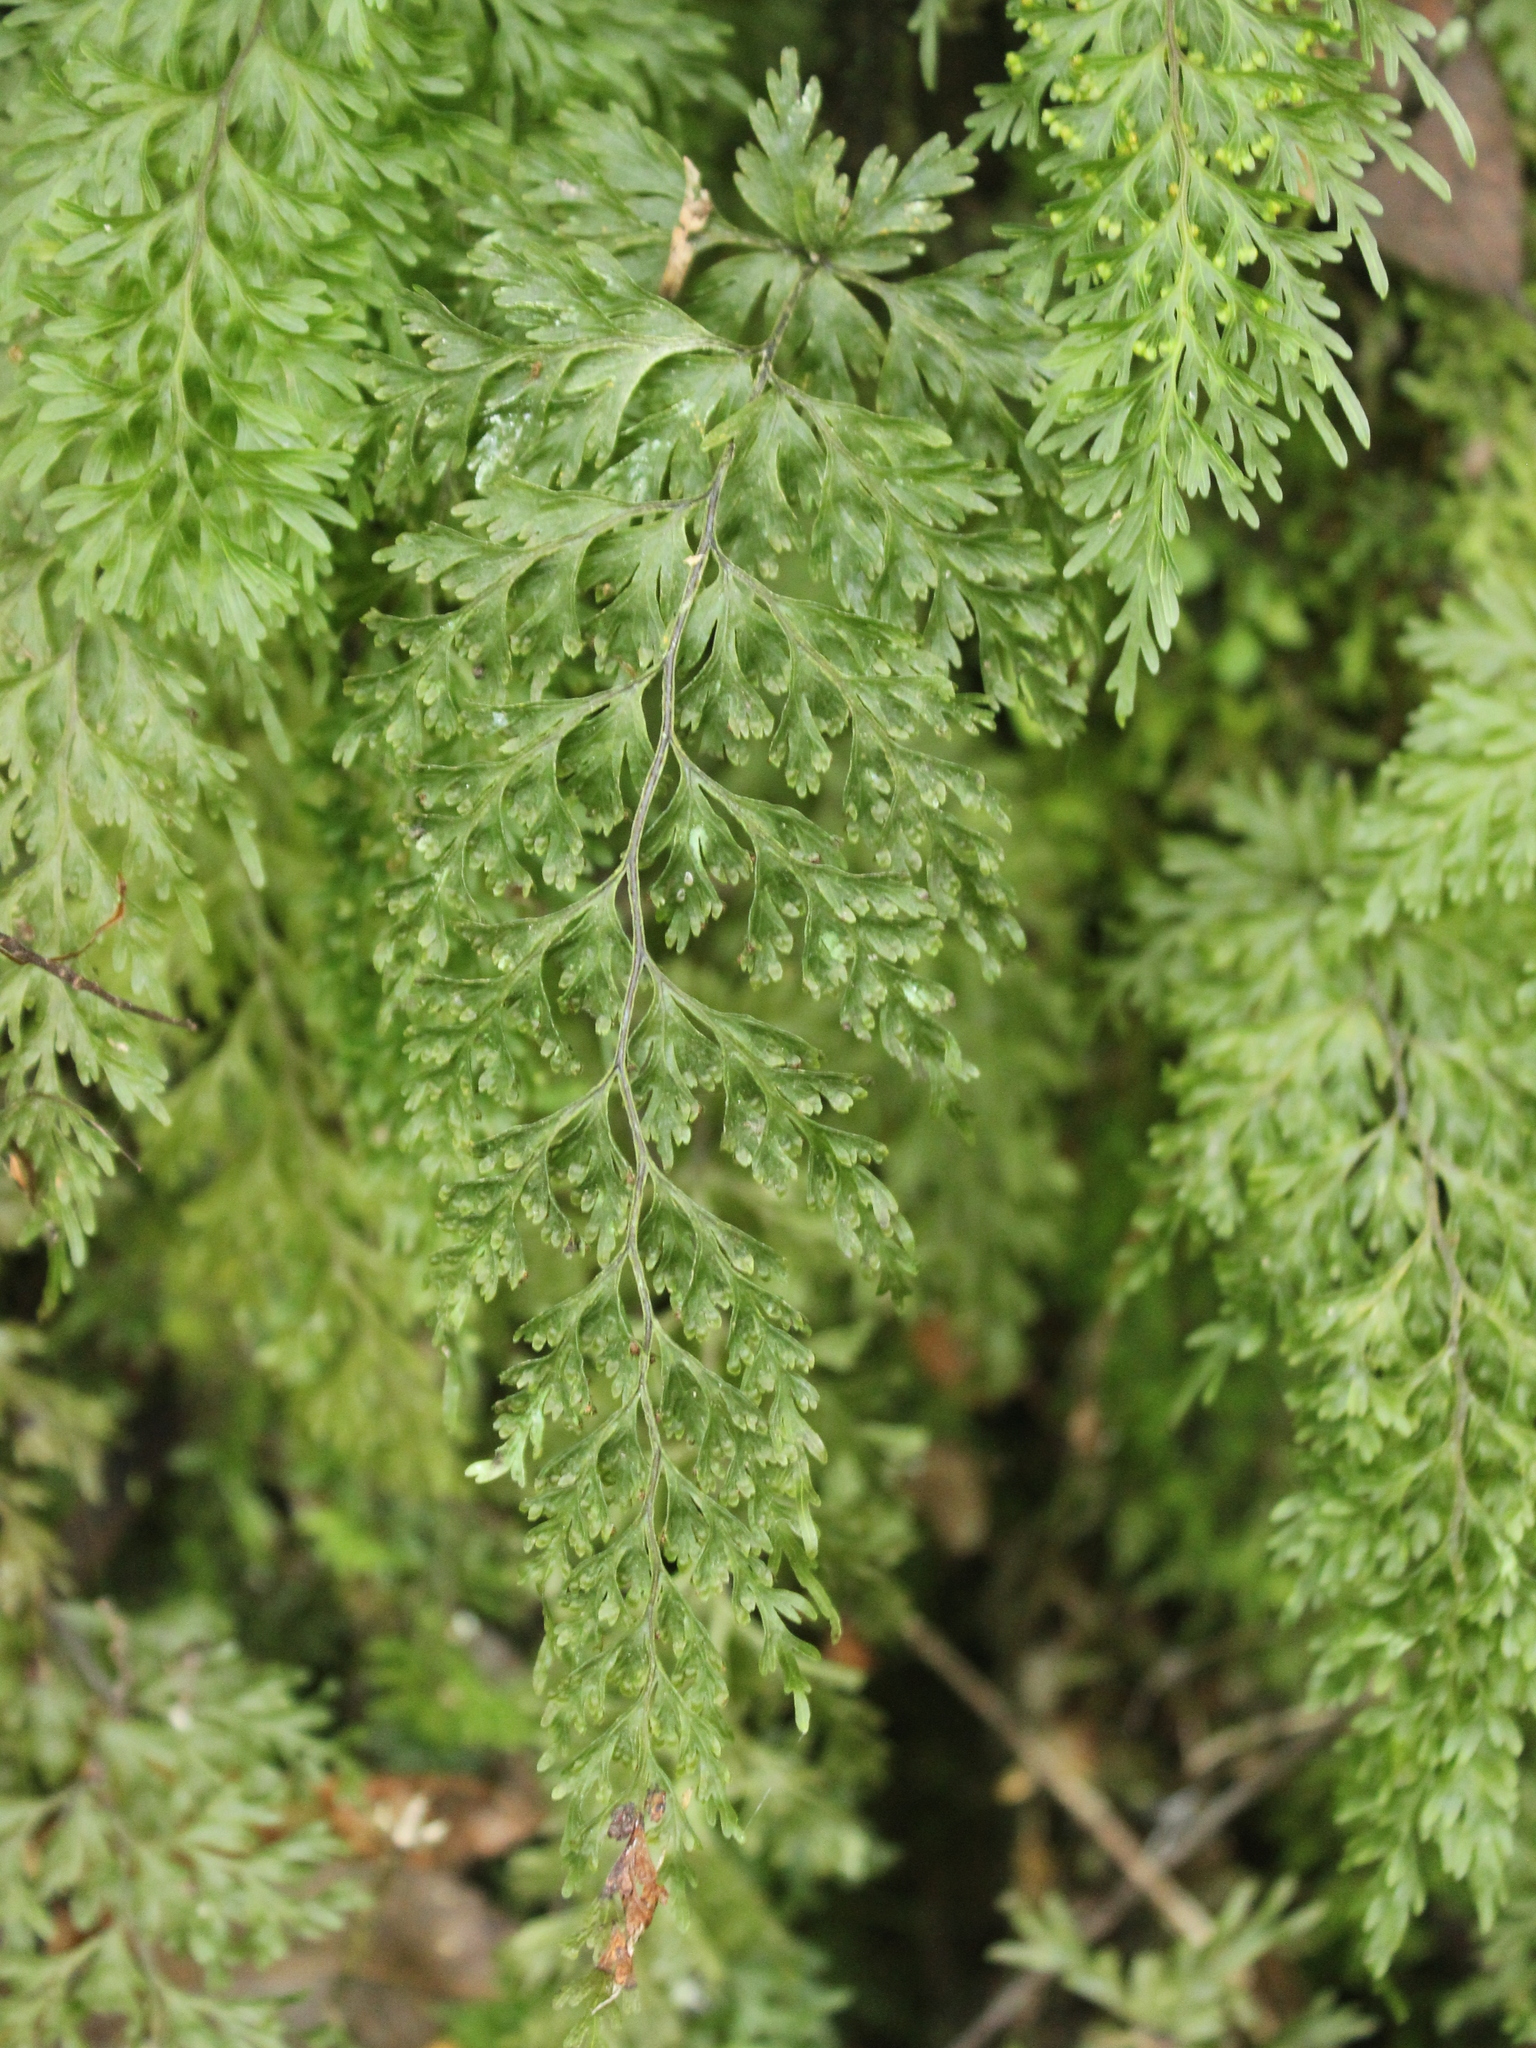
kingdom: Plantae
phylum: Tracheophyta
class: Polypodiopsida
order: Hymenophyllales
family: Hymenophyllaceae
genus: Hymenophyllum
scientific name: Hymenophyllum demissum
